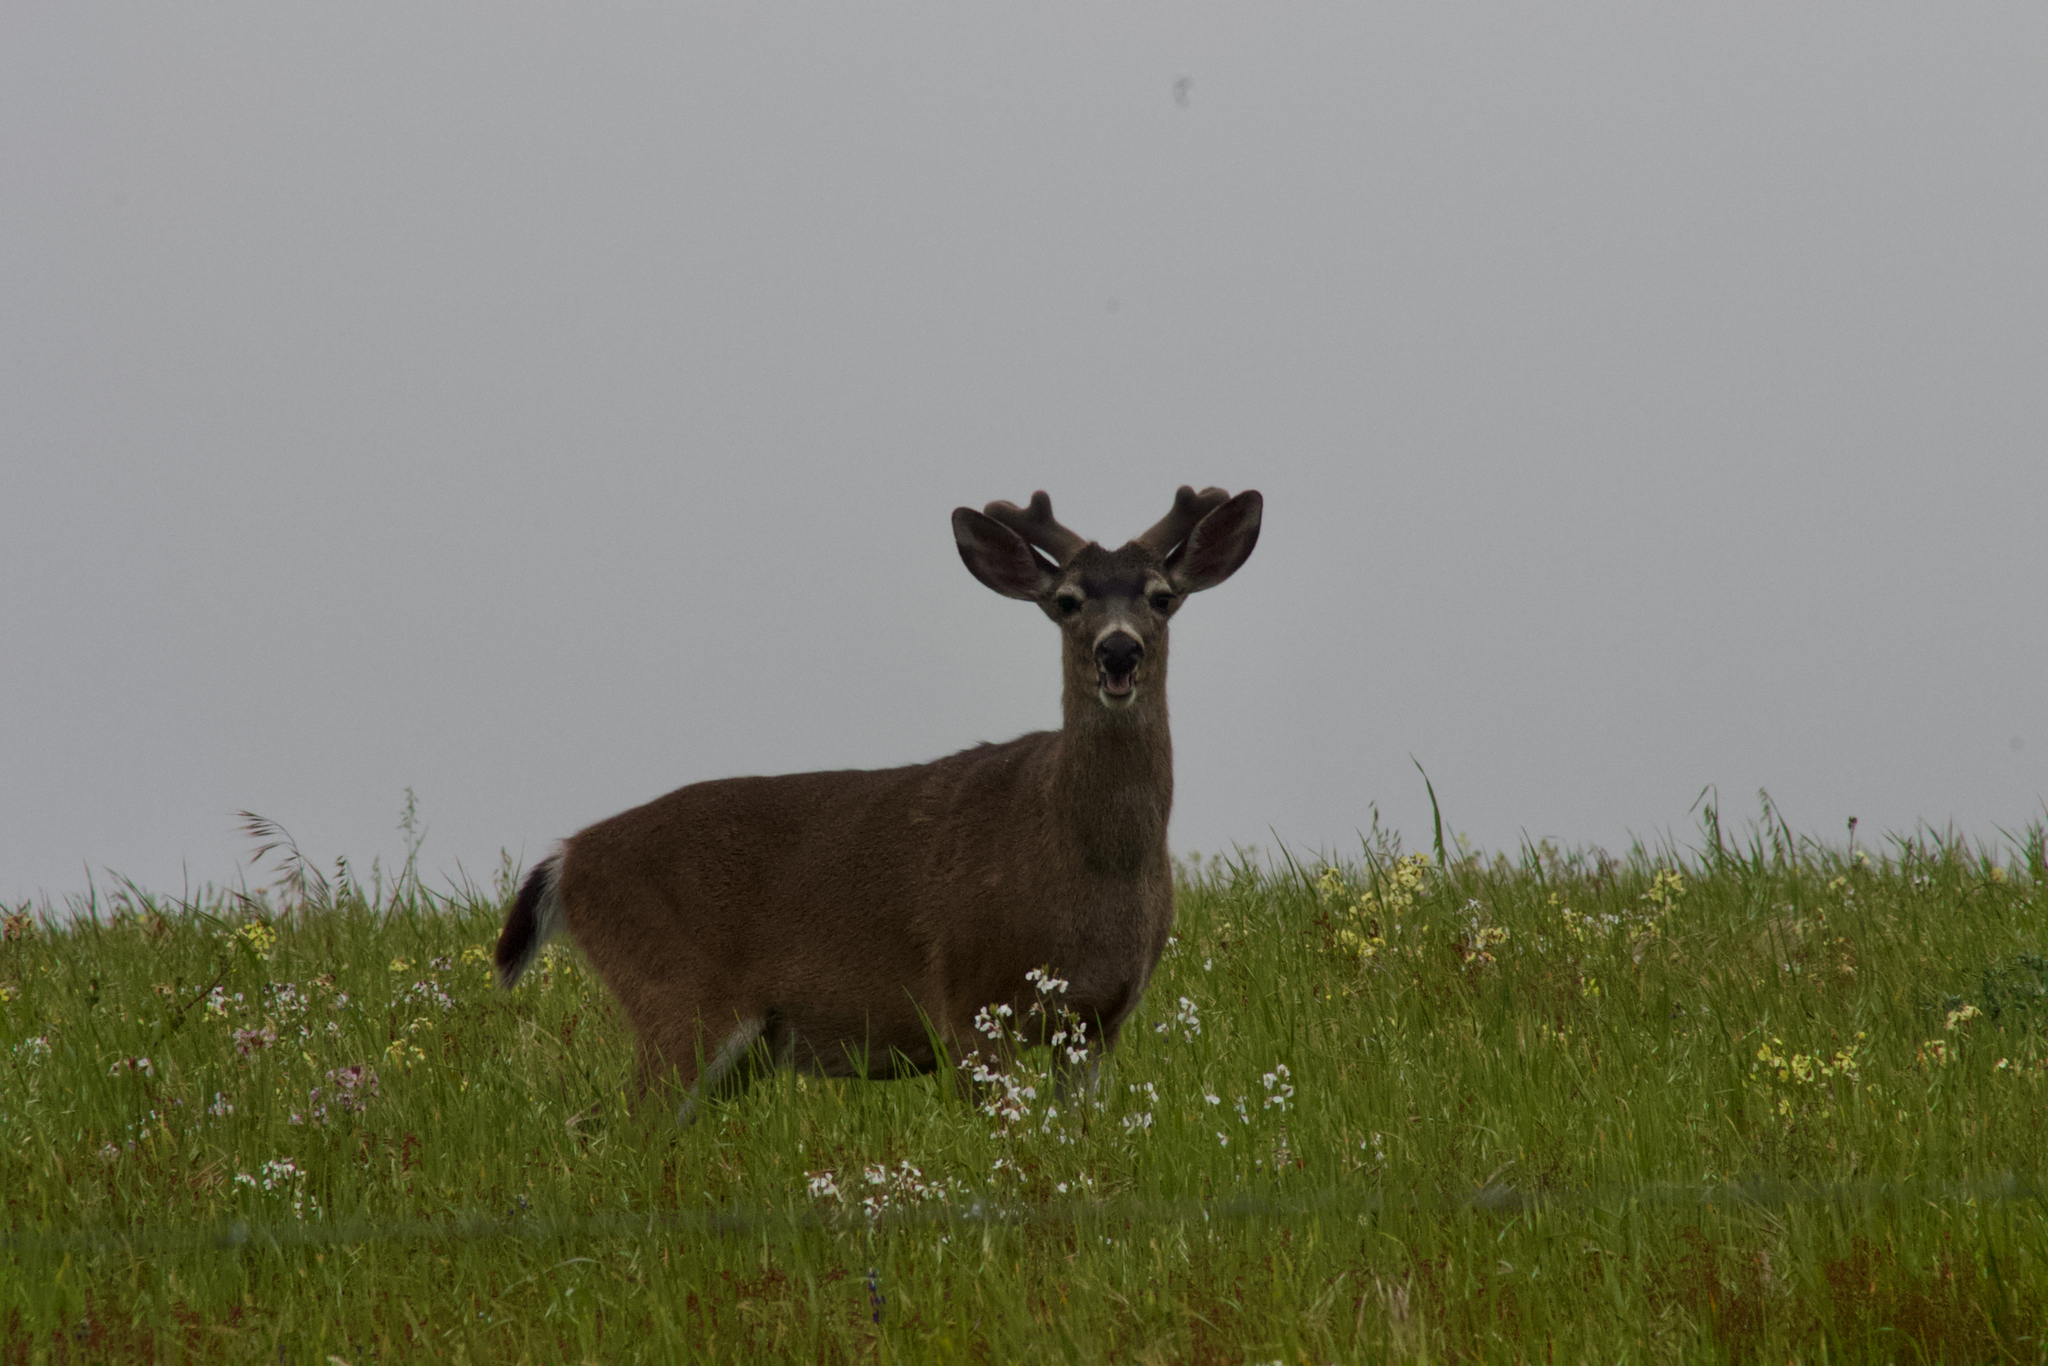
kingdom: Animalia
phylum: Chordata
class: Mammalia
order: Artiodactyla
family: Cervidae
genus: Odocoileus
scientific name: Odocoileus hemionus
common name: Mule deer
